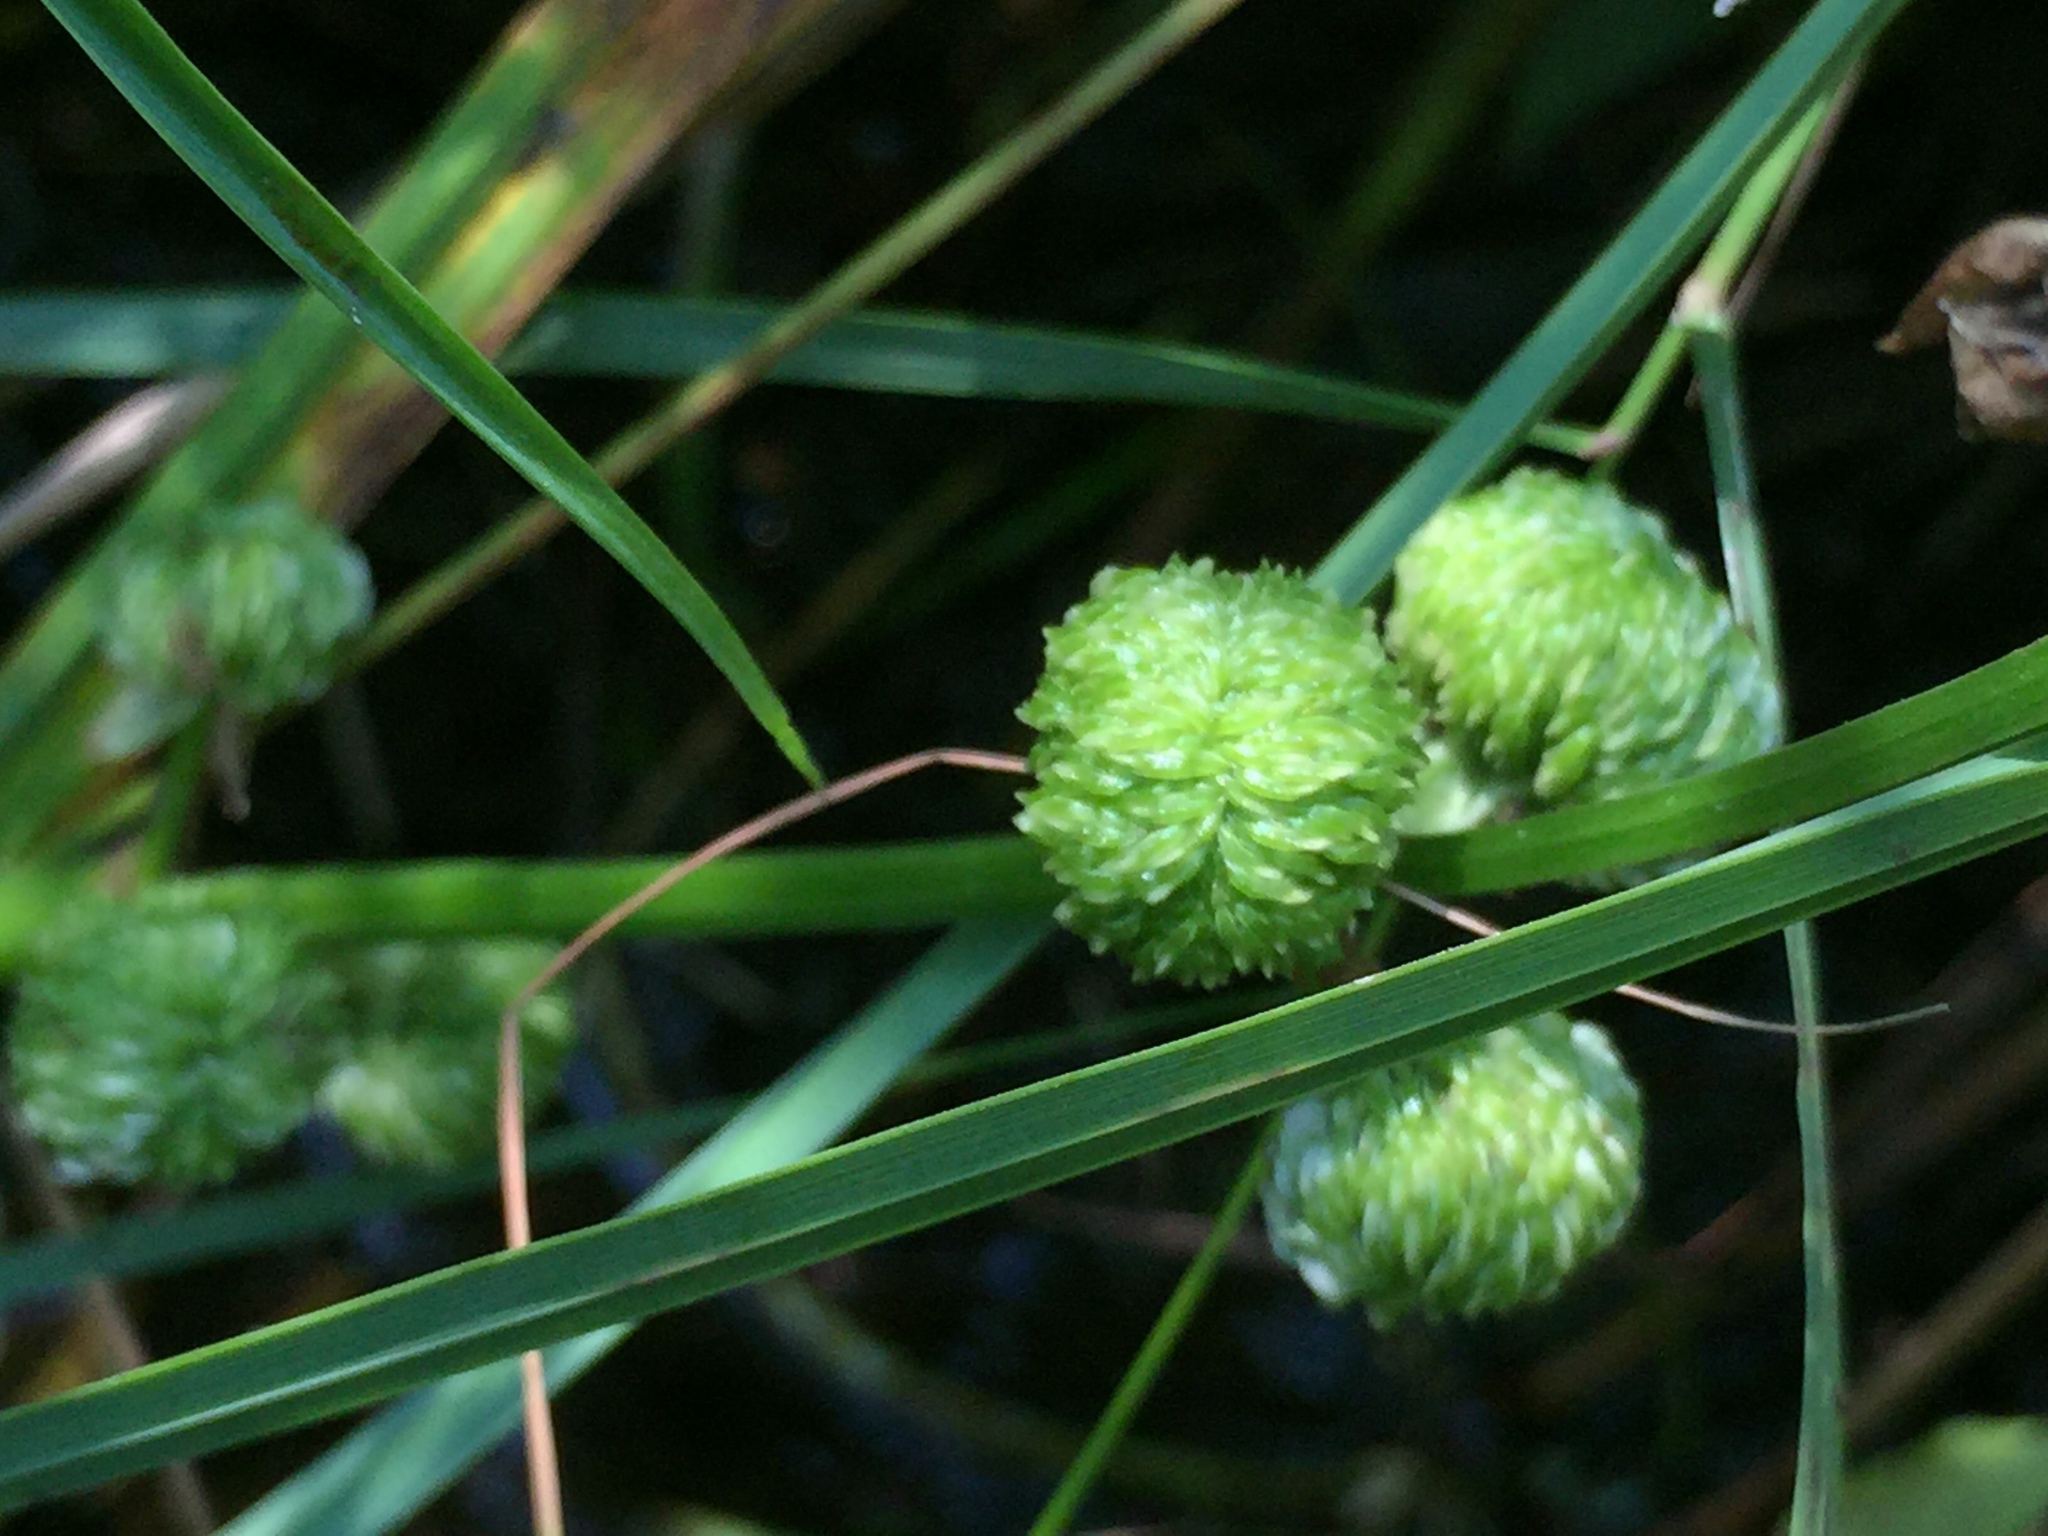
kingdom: Plantae
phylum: Tracheophyta
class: Liliopsida
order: Alismatales
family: Alismataceae
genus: Sagittaria
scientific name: Sagittaria latifolia
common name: Duck-potato
